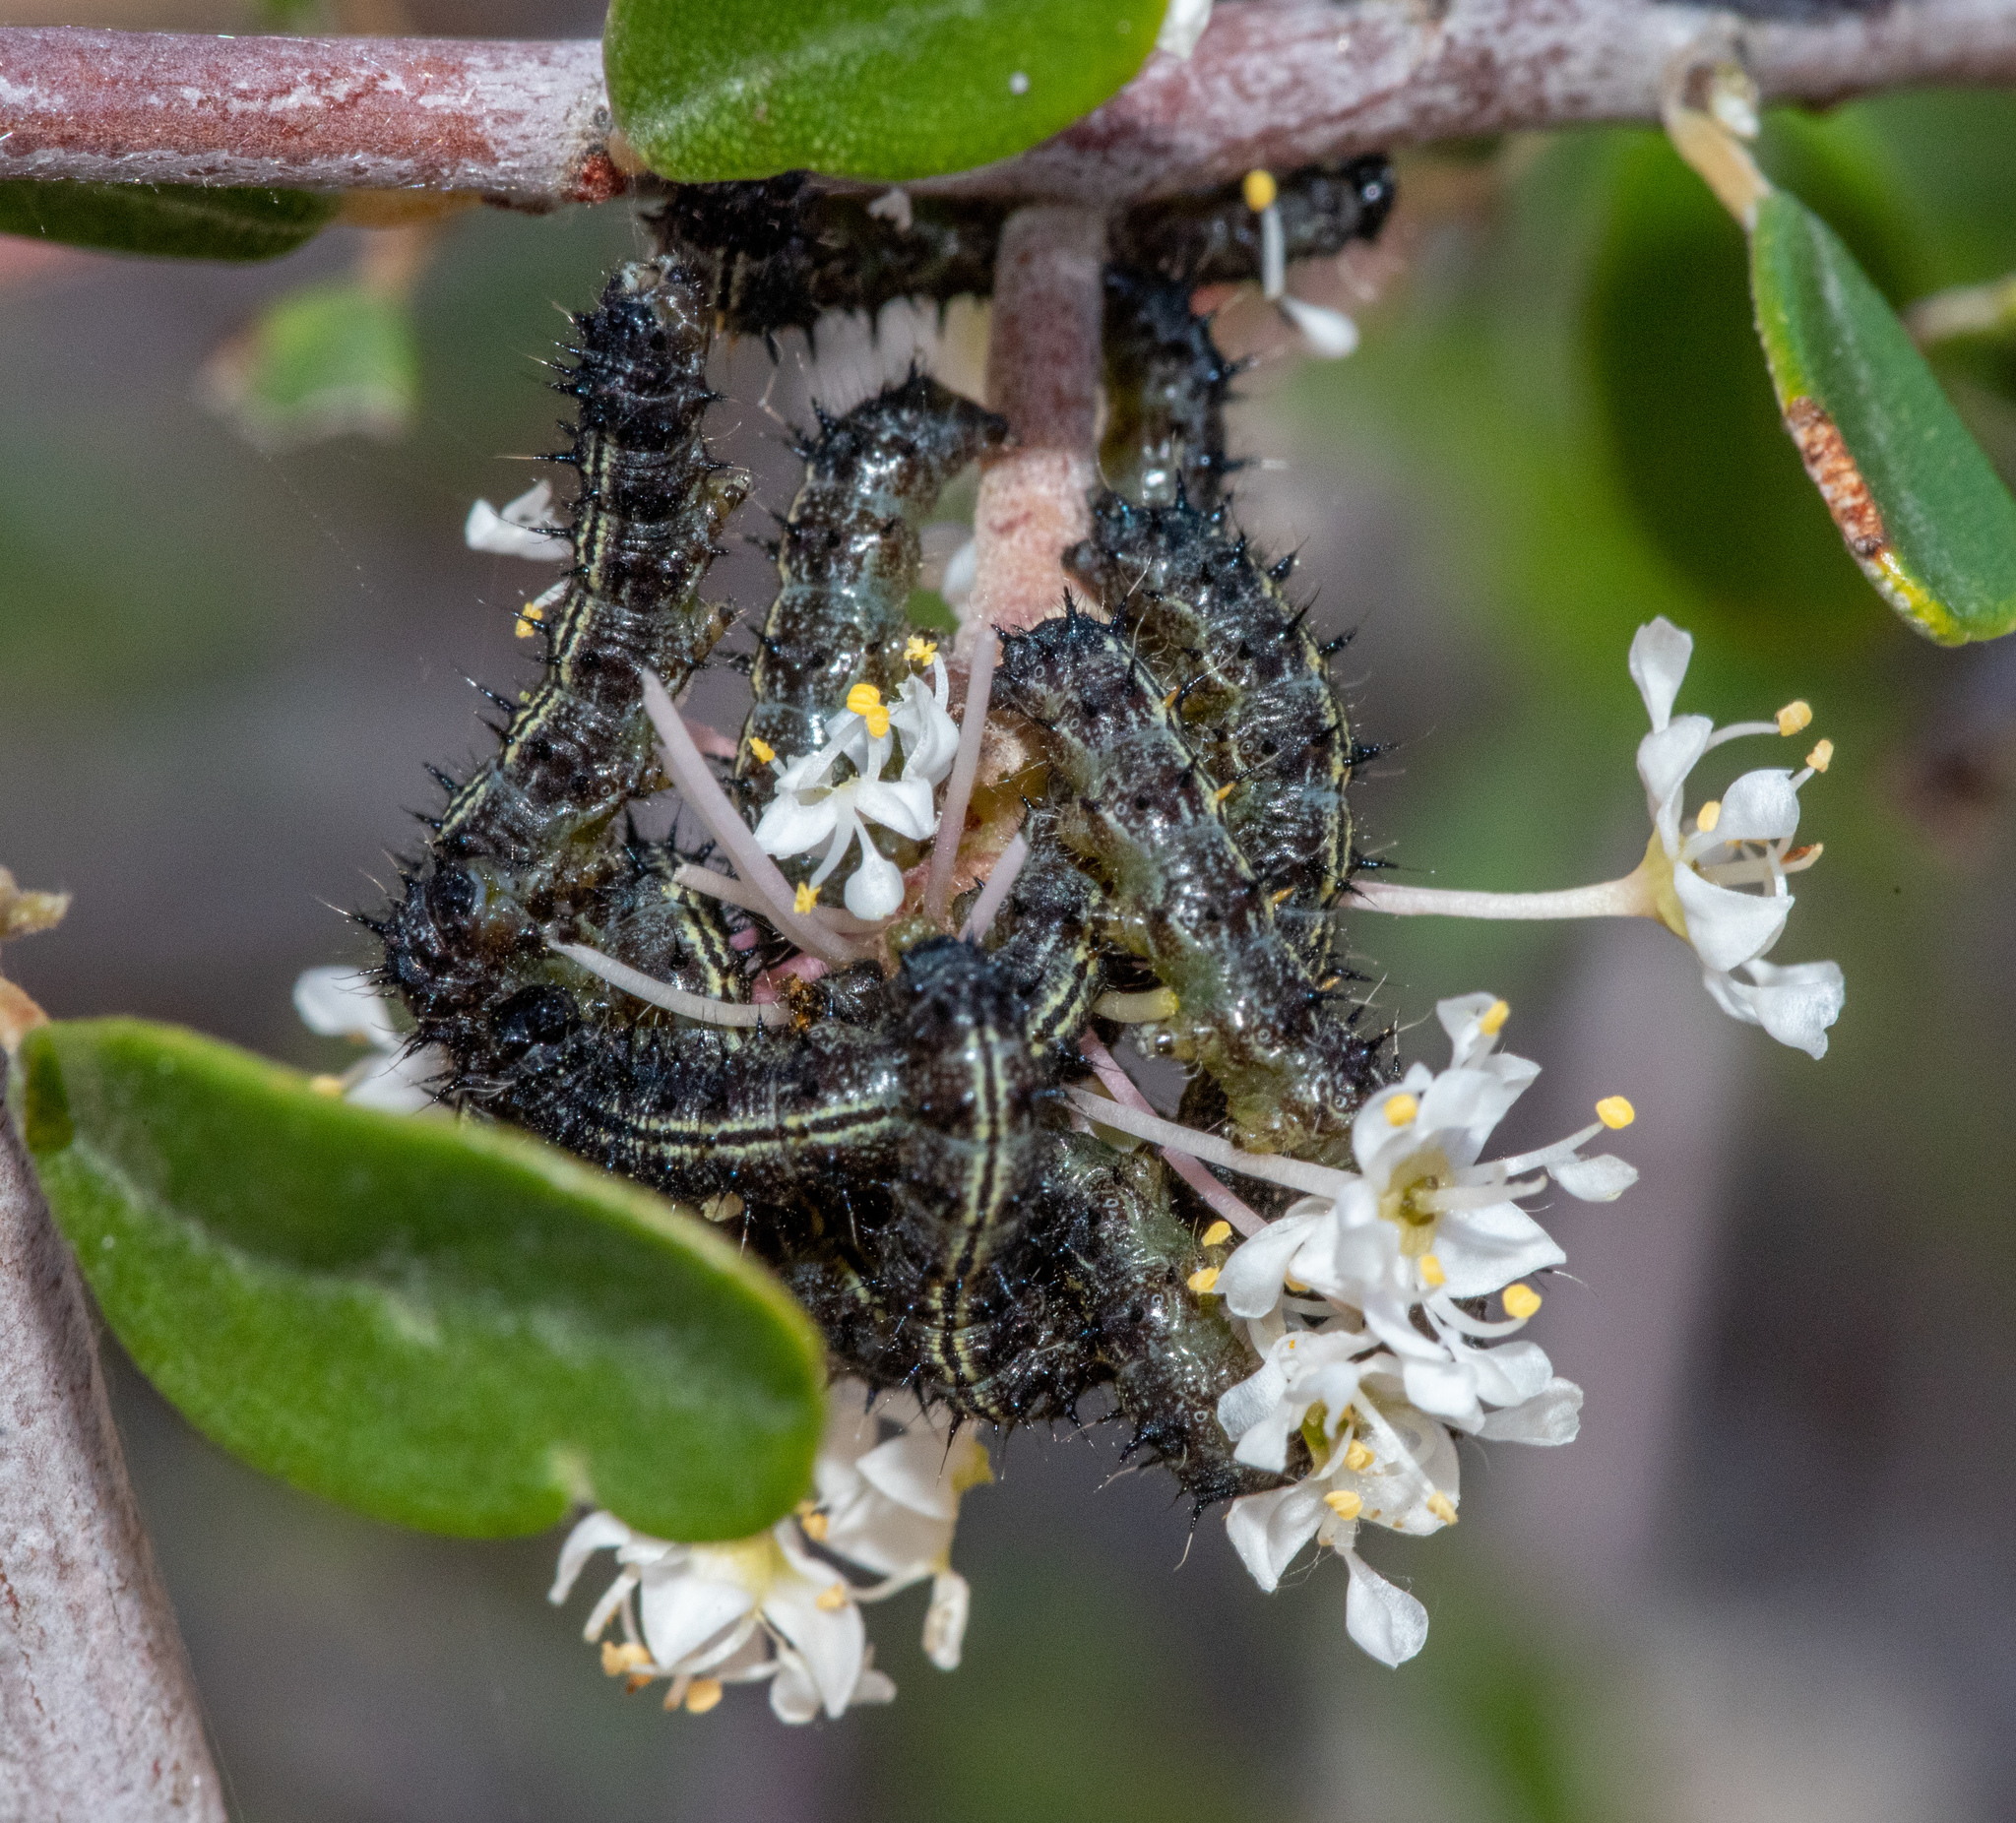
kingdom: Animalia
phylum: Arthropoda
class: Insecta
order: Lepidoptera
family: Nymphalidae
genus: Nymphalis
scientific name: Nymphalis californica
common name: California tortoiseshell
